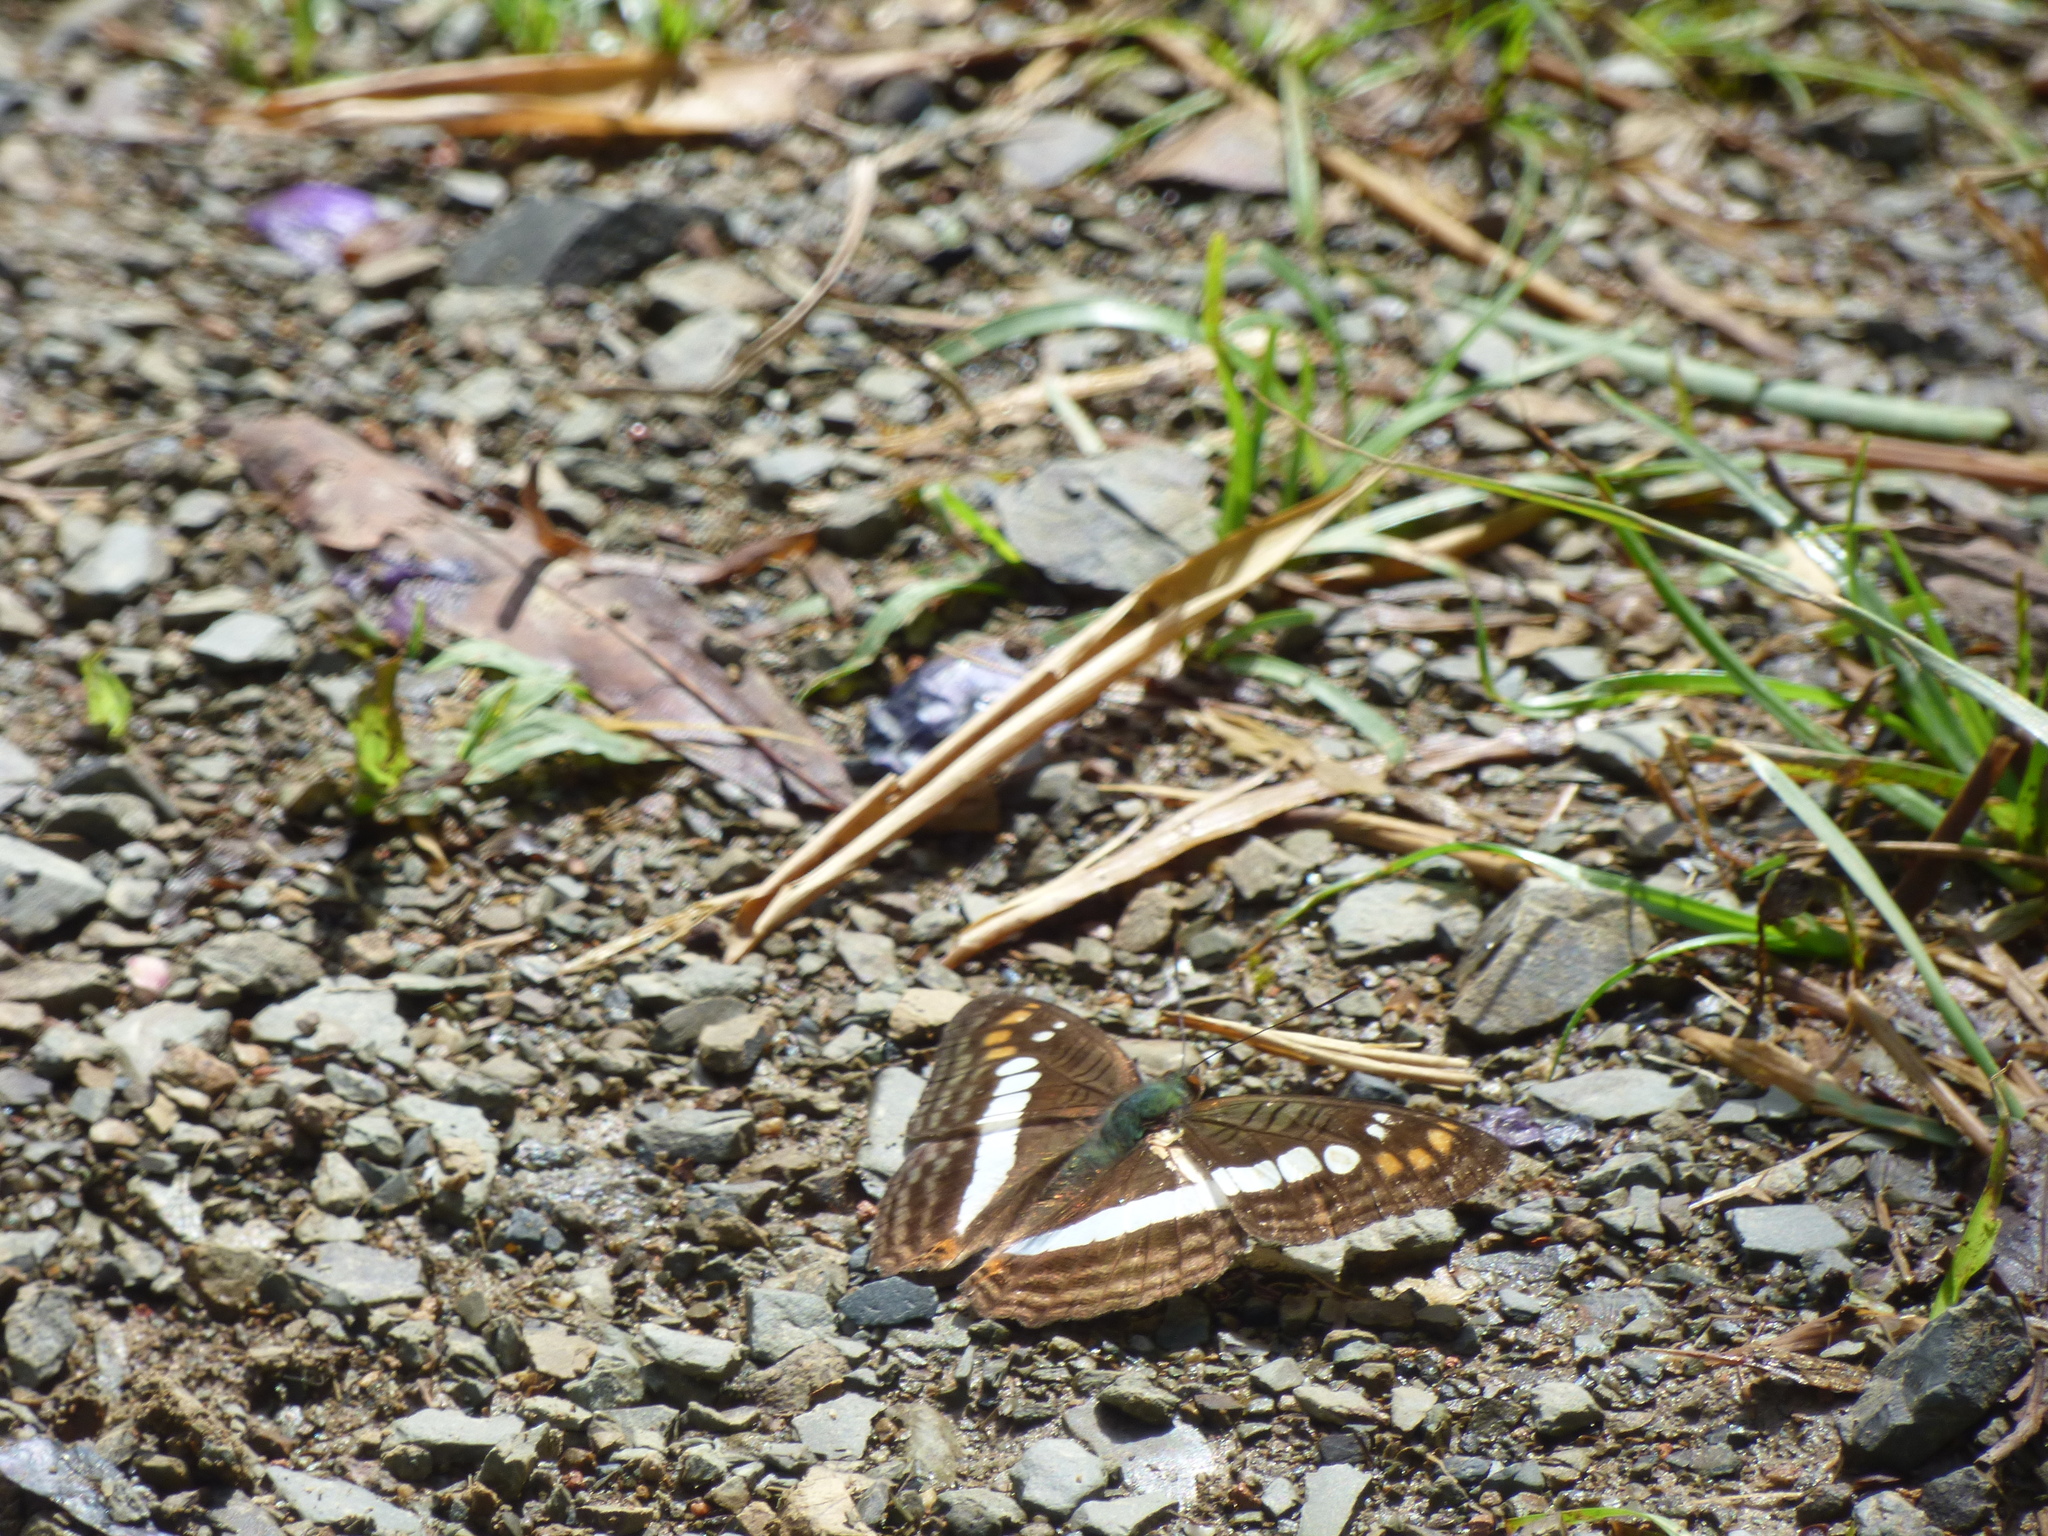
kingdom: Animalia
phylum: Arthropoda
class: Insecta
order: Lepidoptera
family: Nymphalidae
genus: Limenitis
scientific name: Limenitis alala
